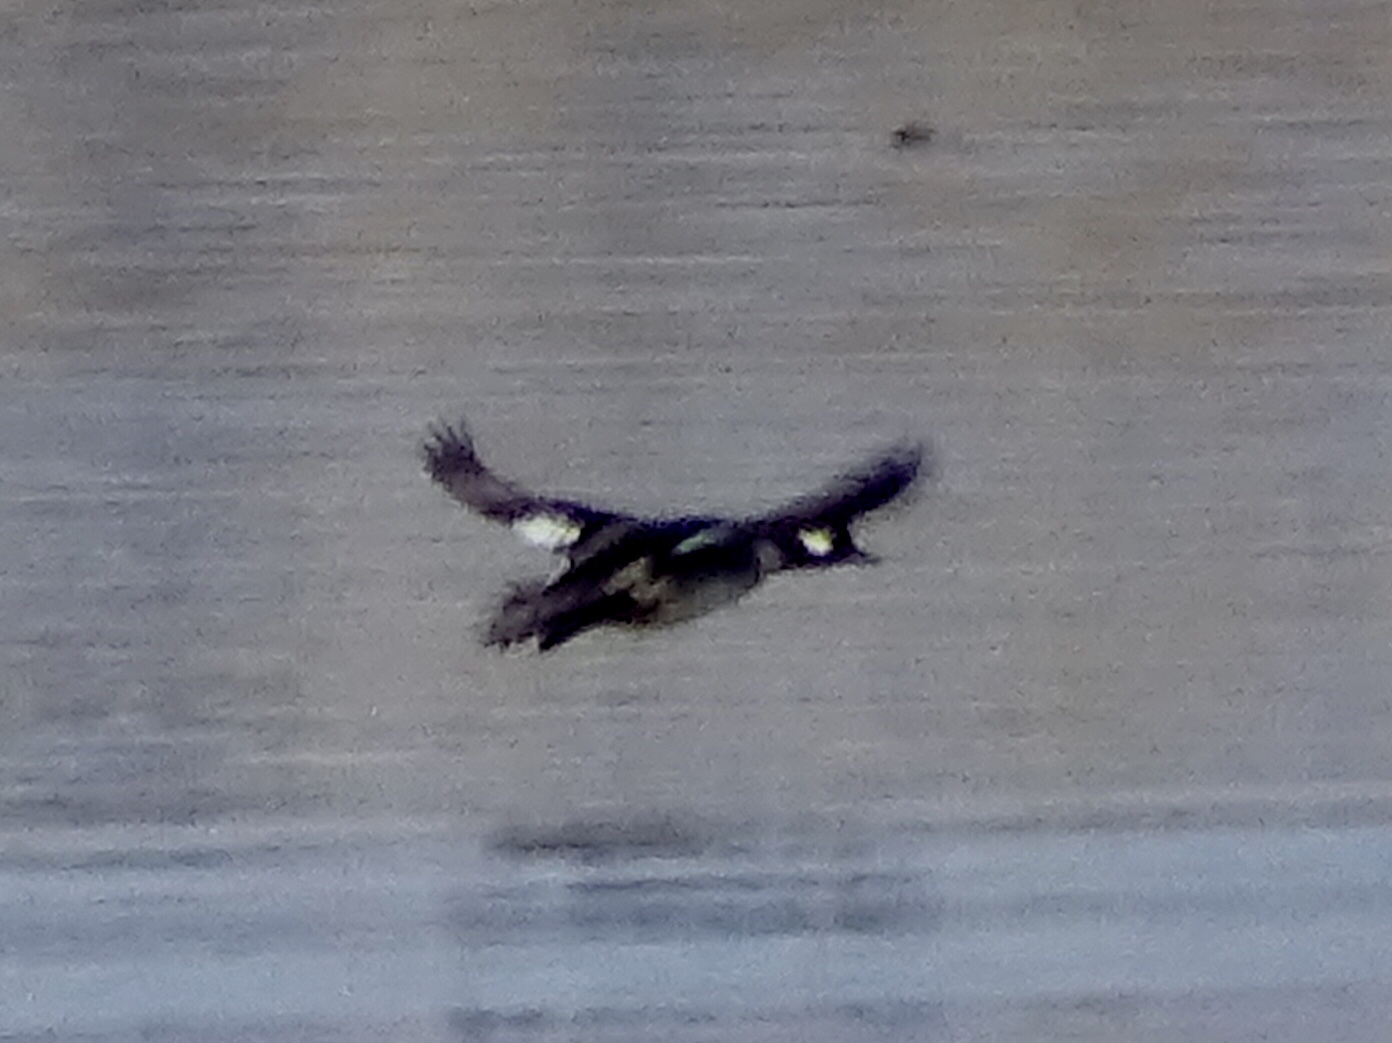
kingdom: Animalia
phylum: Chordata
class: Aves
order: Anseriformes
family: Anatidae
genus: Bucephala
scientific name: Bucephala albeola
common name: Bufflehead
